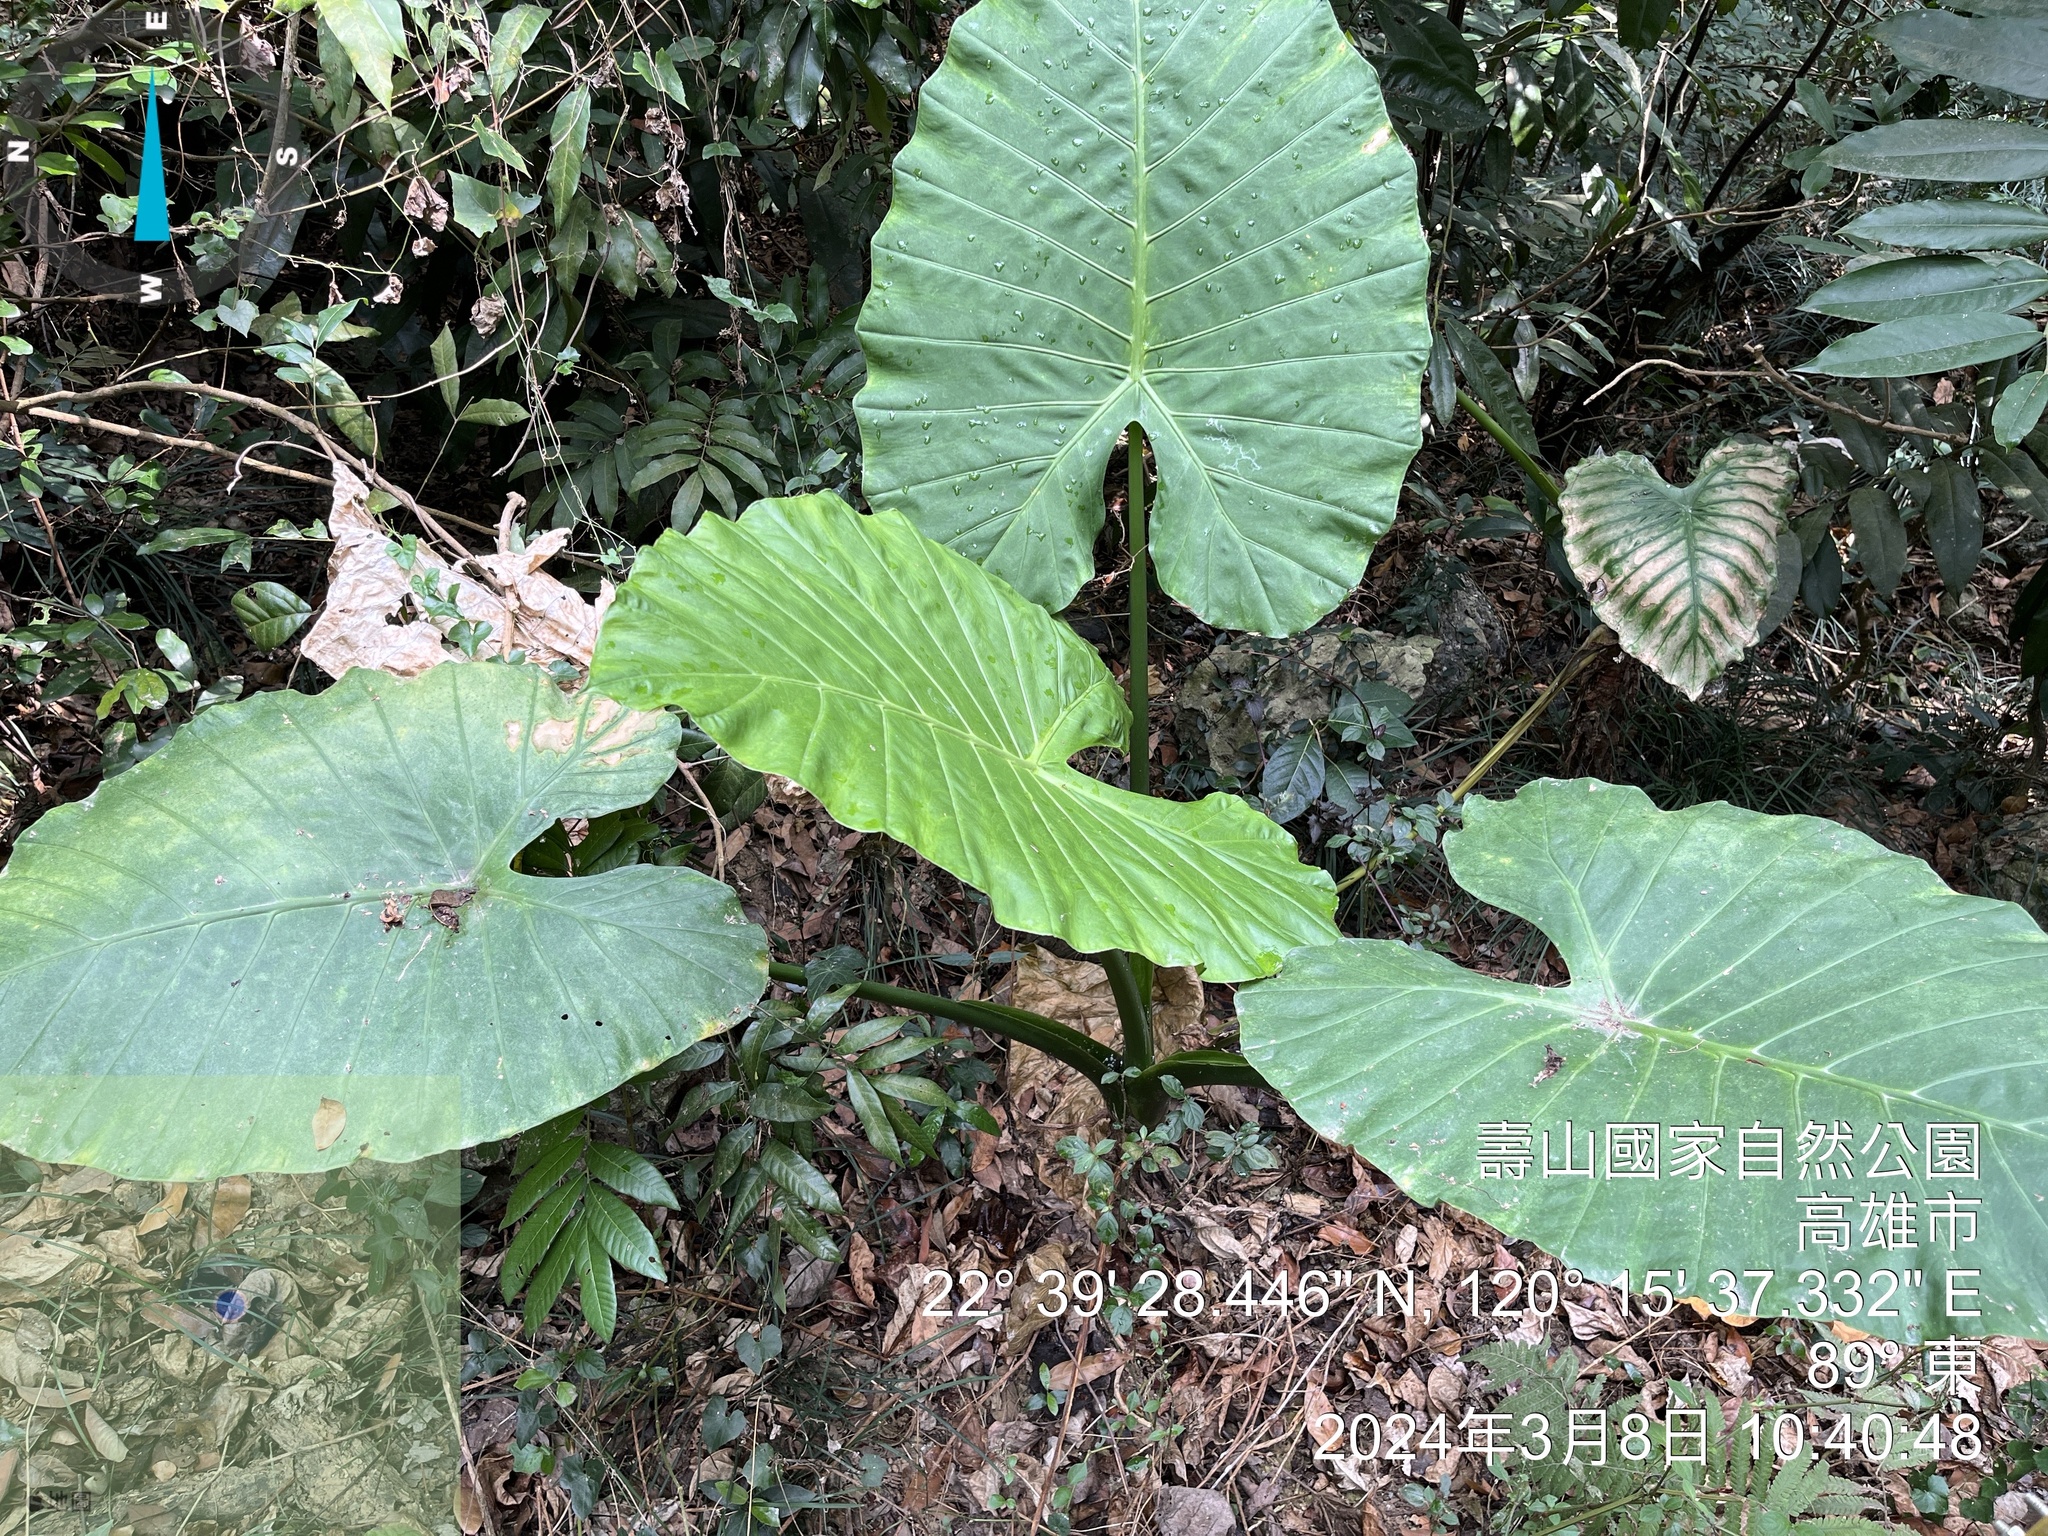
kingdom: Plantae
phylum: Tracheophyta
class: Liliopsida
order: Alismatales
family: Araceae
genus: Alocasia
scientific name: Alocasia odora
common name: Asian taro
